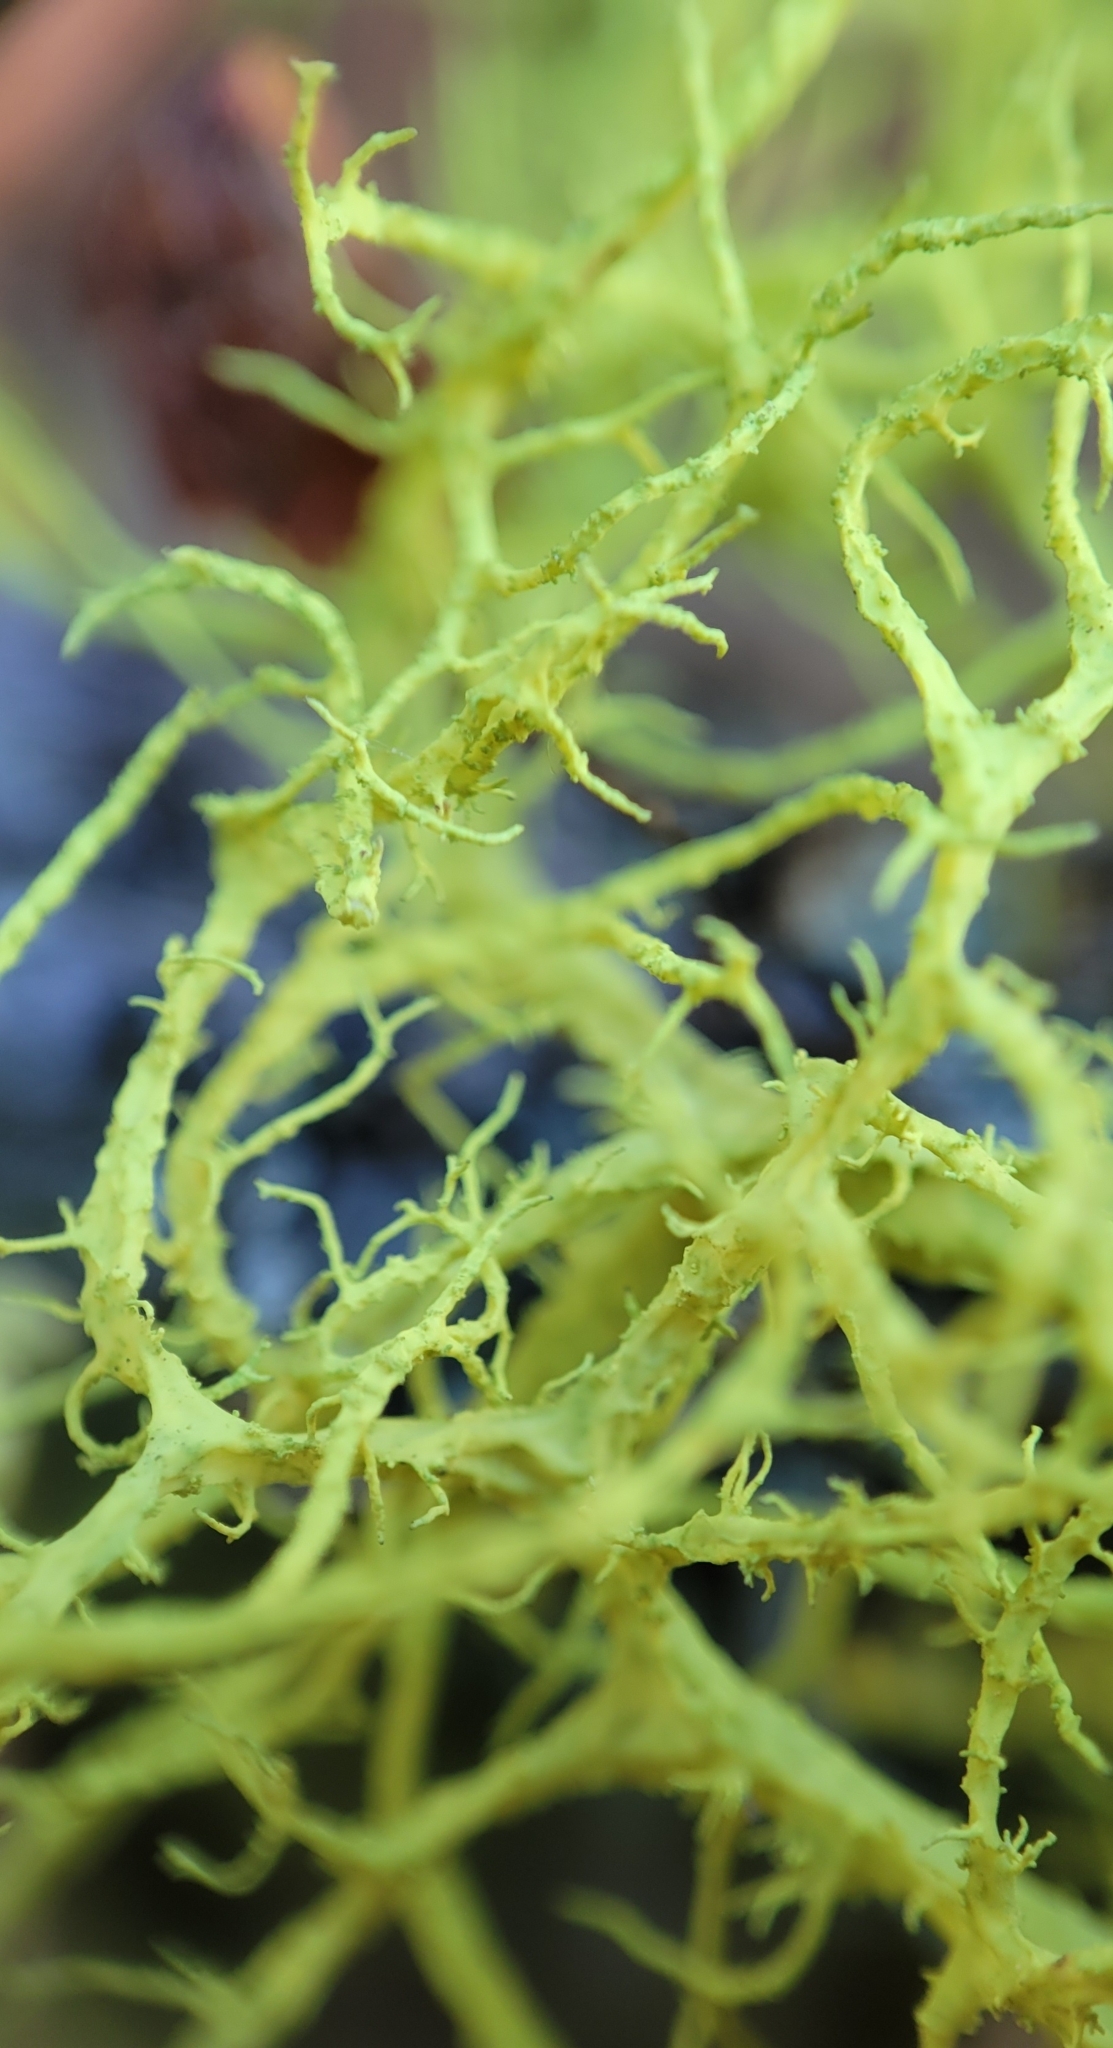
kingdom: Fungi
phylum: Ascomycota
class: Lecanoromycetes
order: Lecanorales
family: Parmeliaceae
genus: Letharia
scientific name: Letharia vulpina
